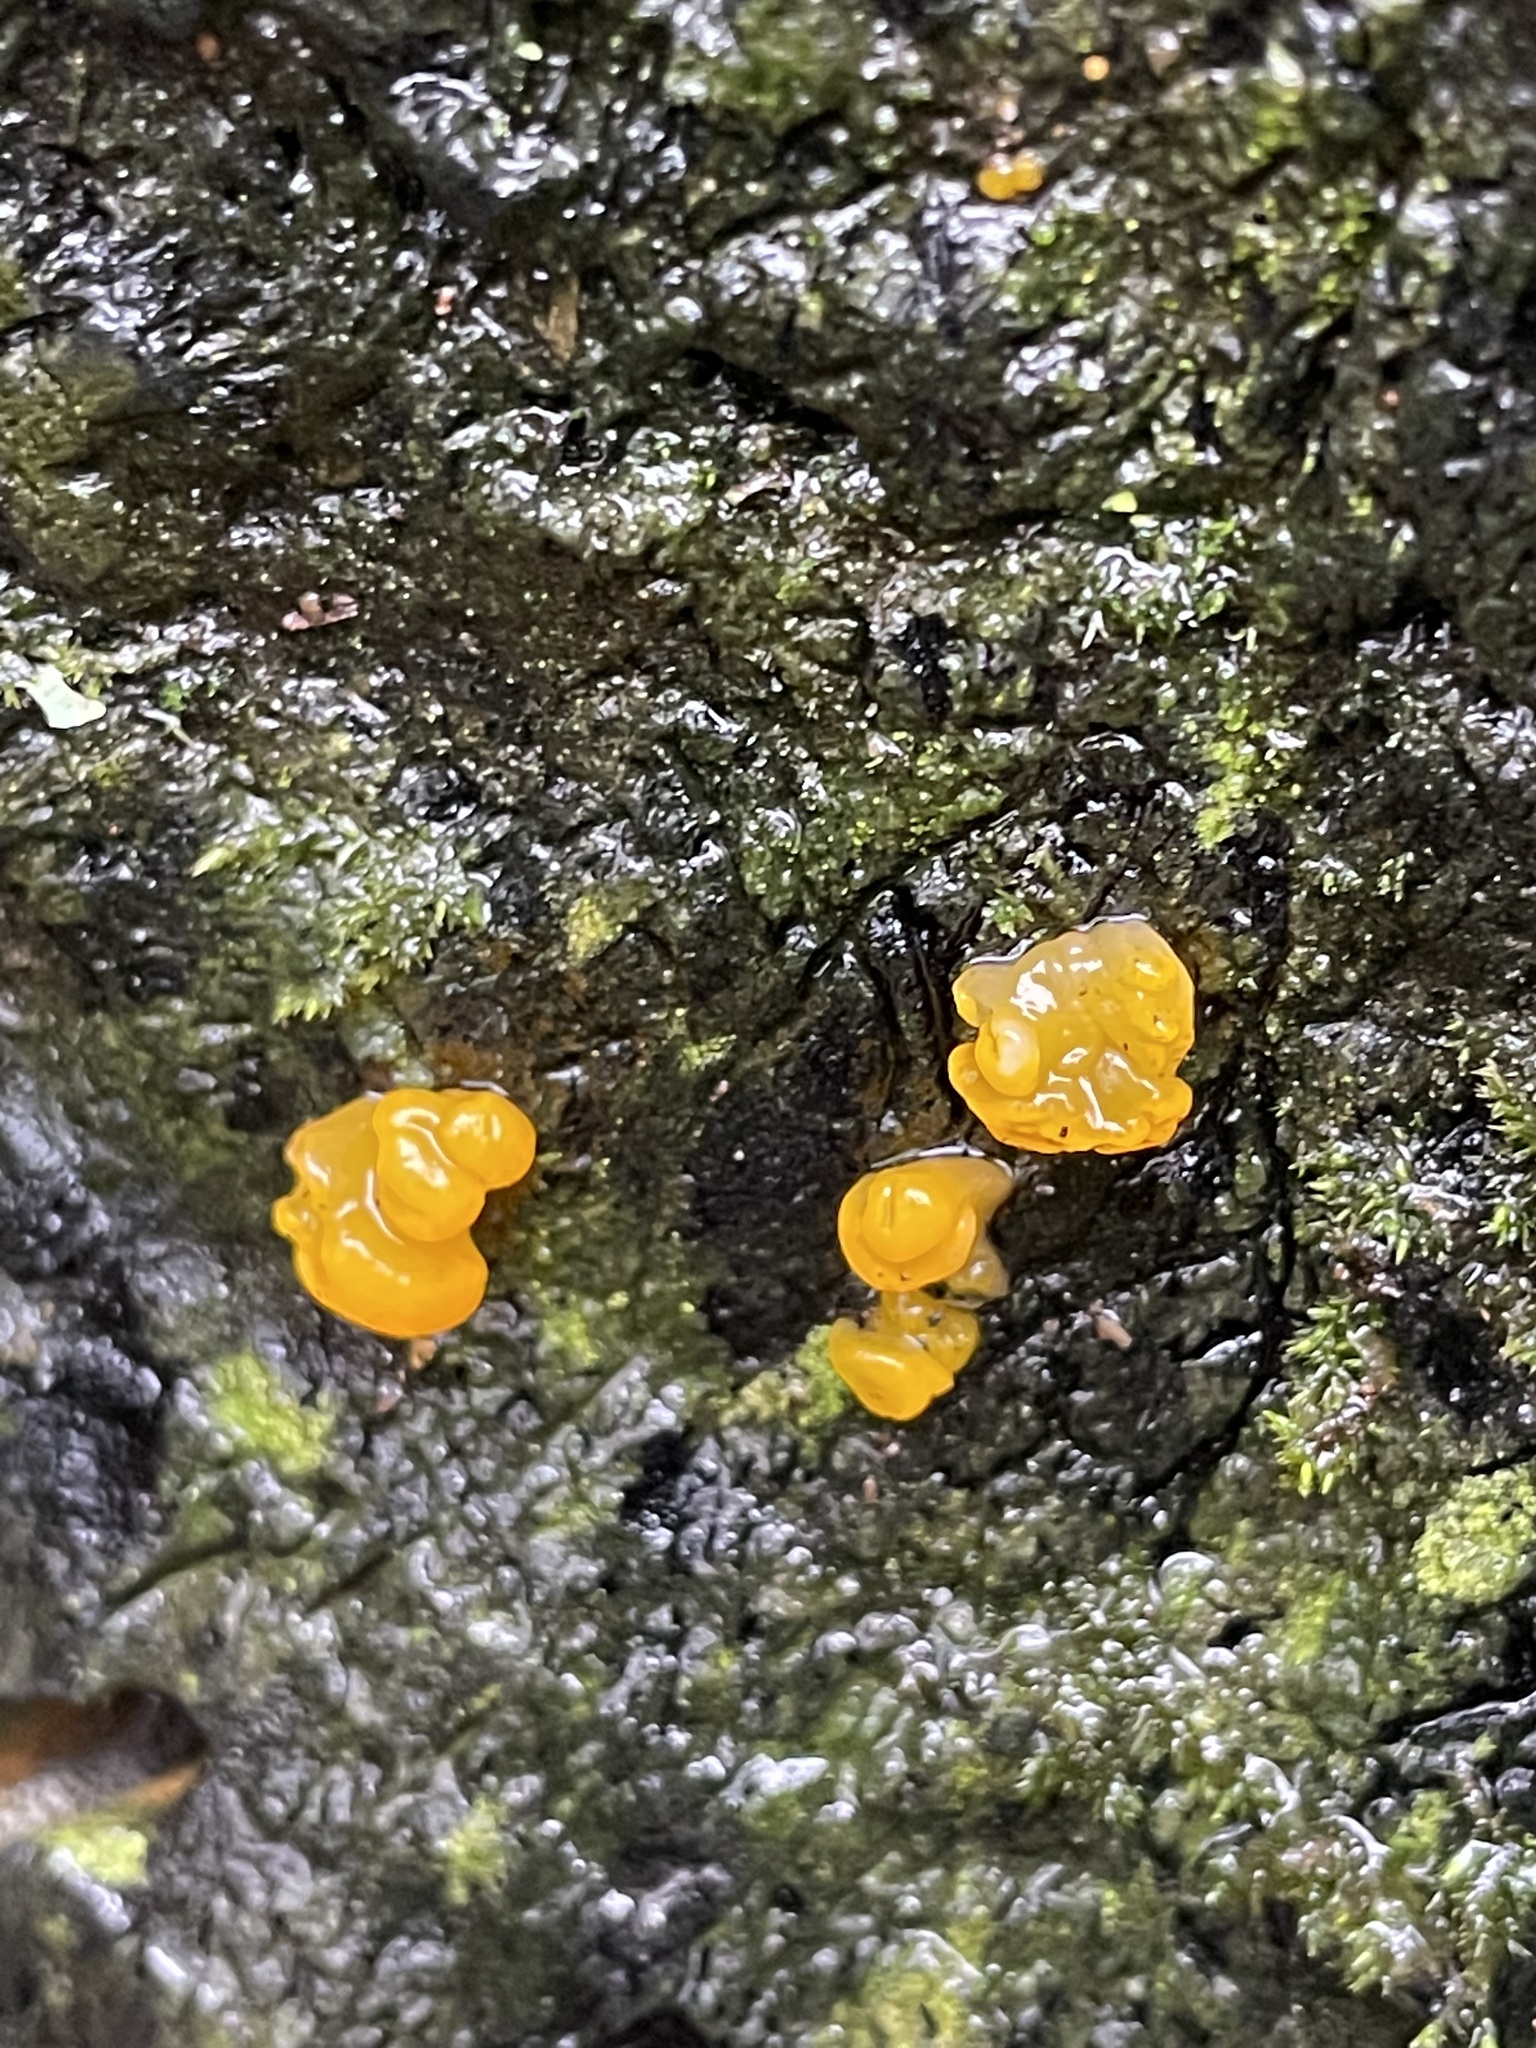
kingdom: Fungi
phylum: Basidiomycota
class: Dacrymycetes
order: Dacrymycetales
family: Dacrymycetaceae
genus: Dacrymyces
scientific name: Dacrymyces chrysospermus
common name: Orange jelly spot
